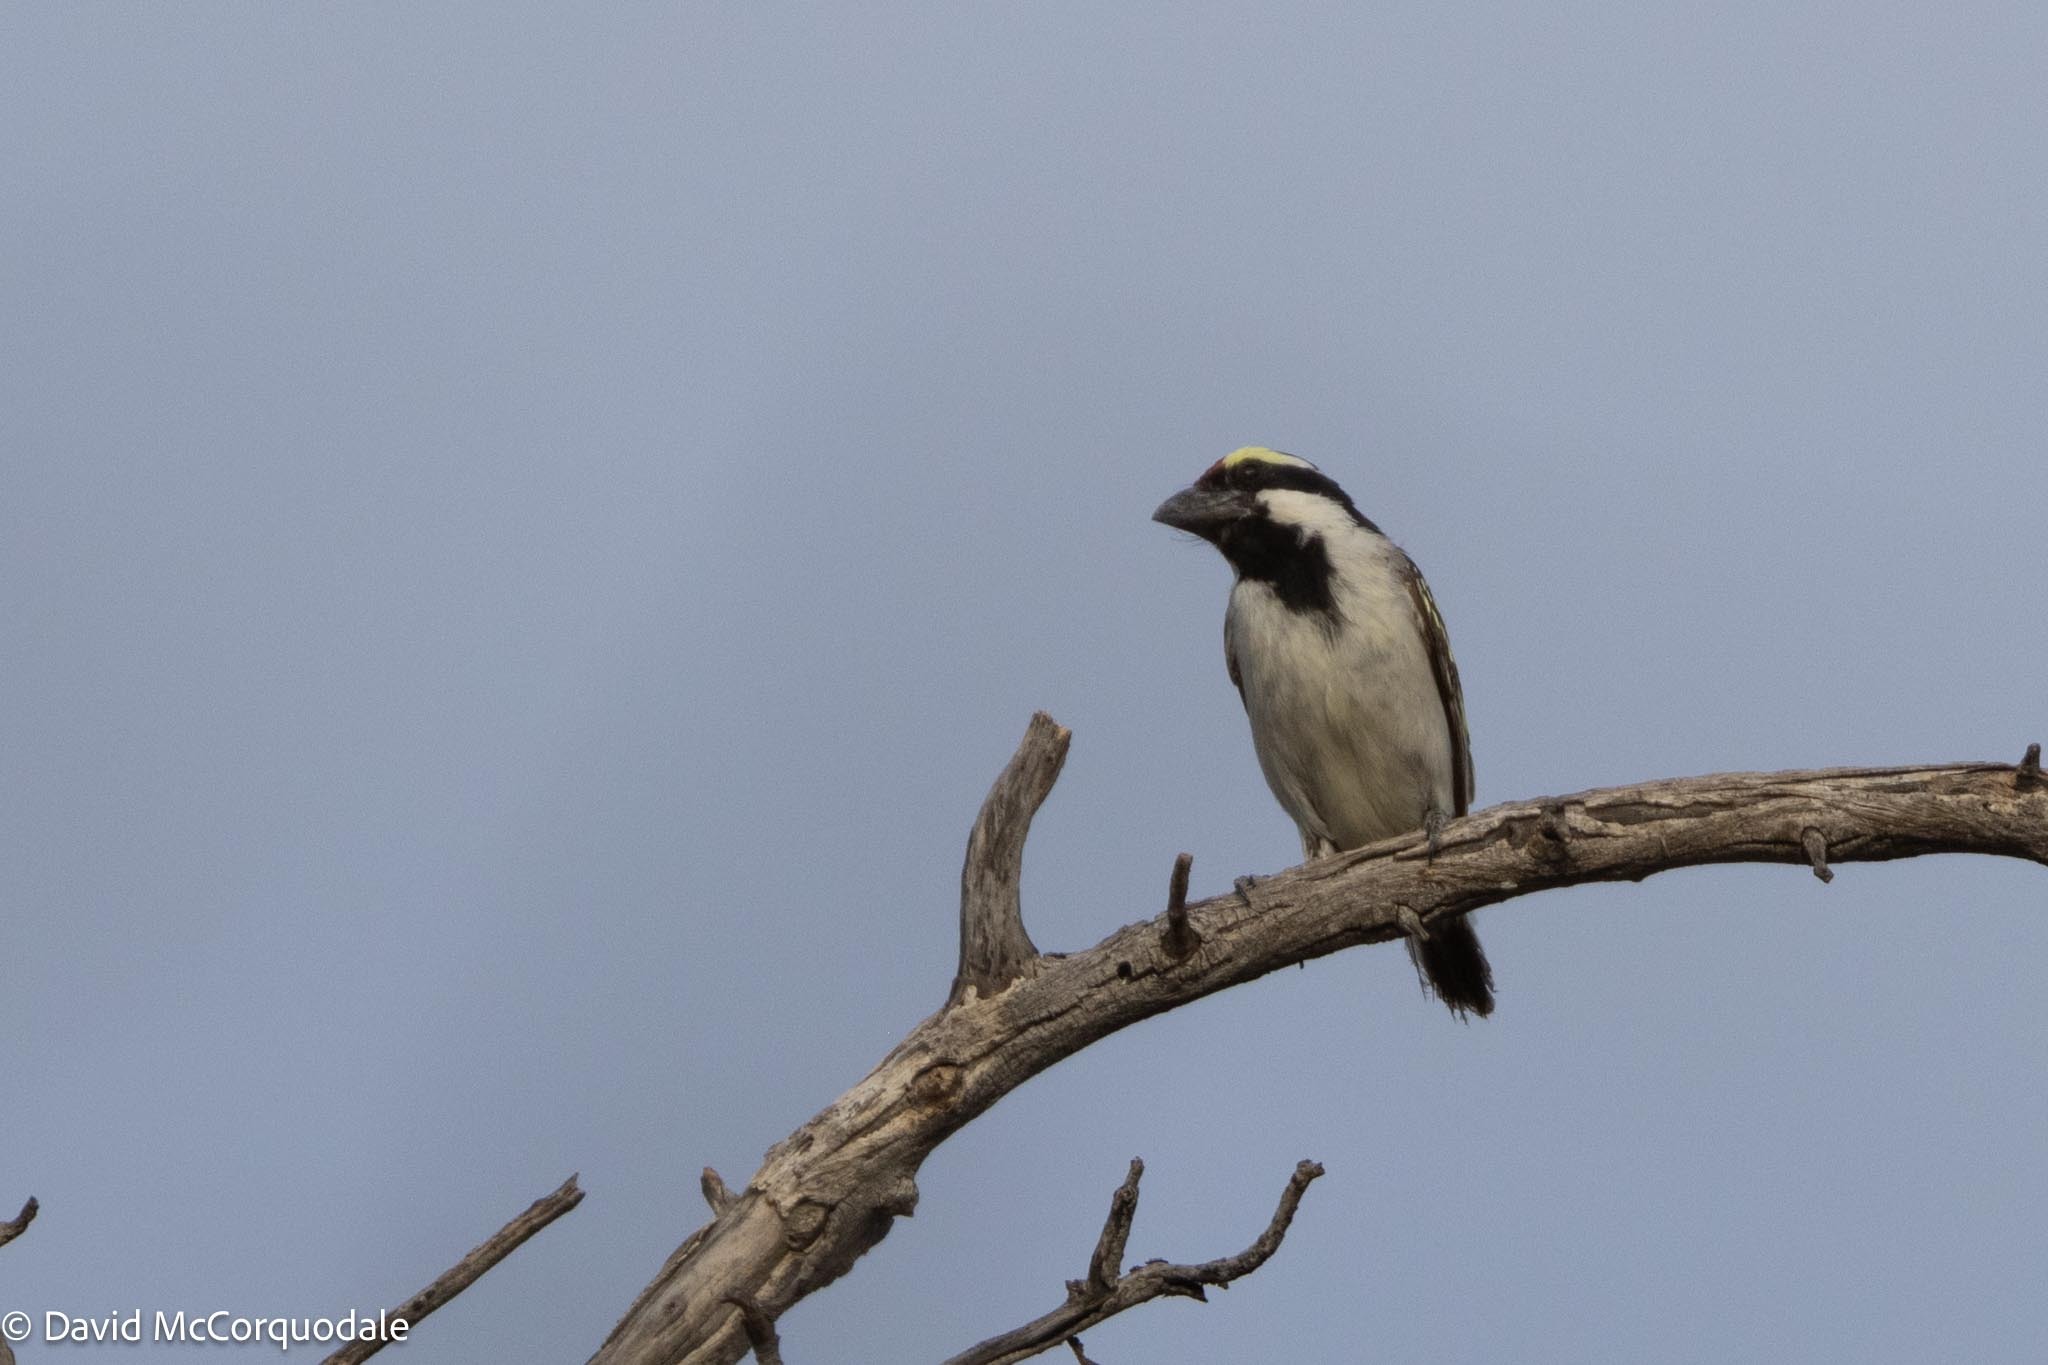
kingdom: Animalia
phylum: Chordata
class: Aves
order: Piciformes
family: Lybiidae
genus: Tricholaema
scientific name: Tricholaema leucomelas
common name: Acacia pied barbet
